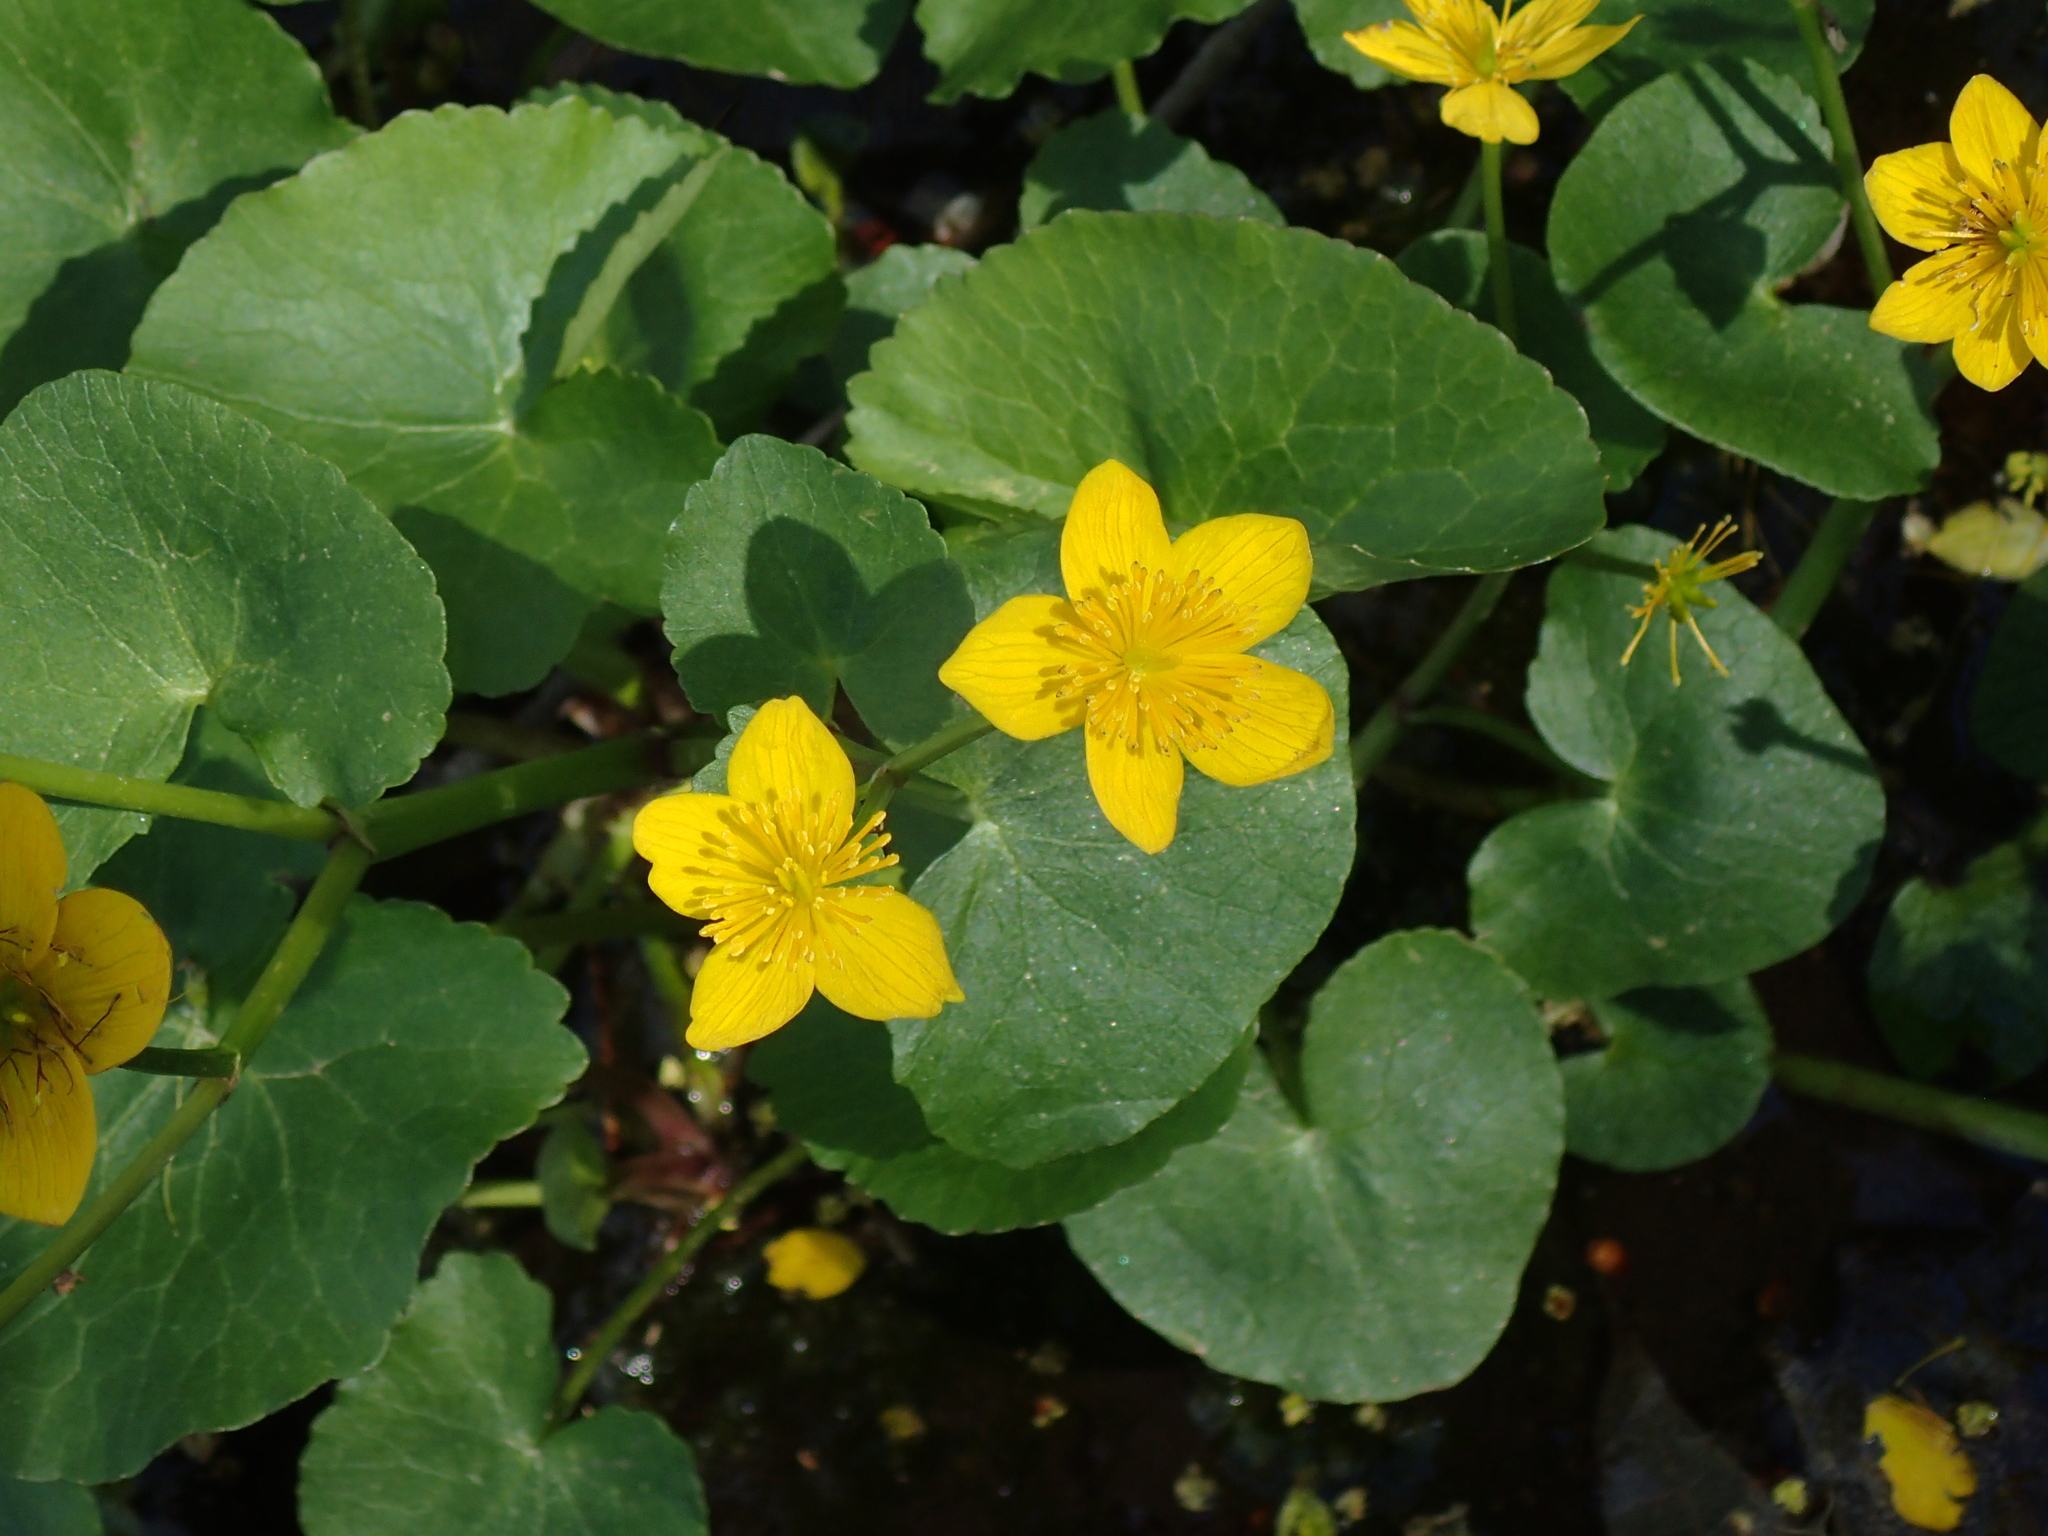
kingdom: Plantae
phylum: Tracheophyta
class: Magnoliopsida
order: Ranunculales
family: Ranunculaceae
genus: Caltha
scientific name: Caltha palustris
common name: Marsh marigold
